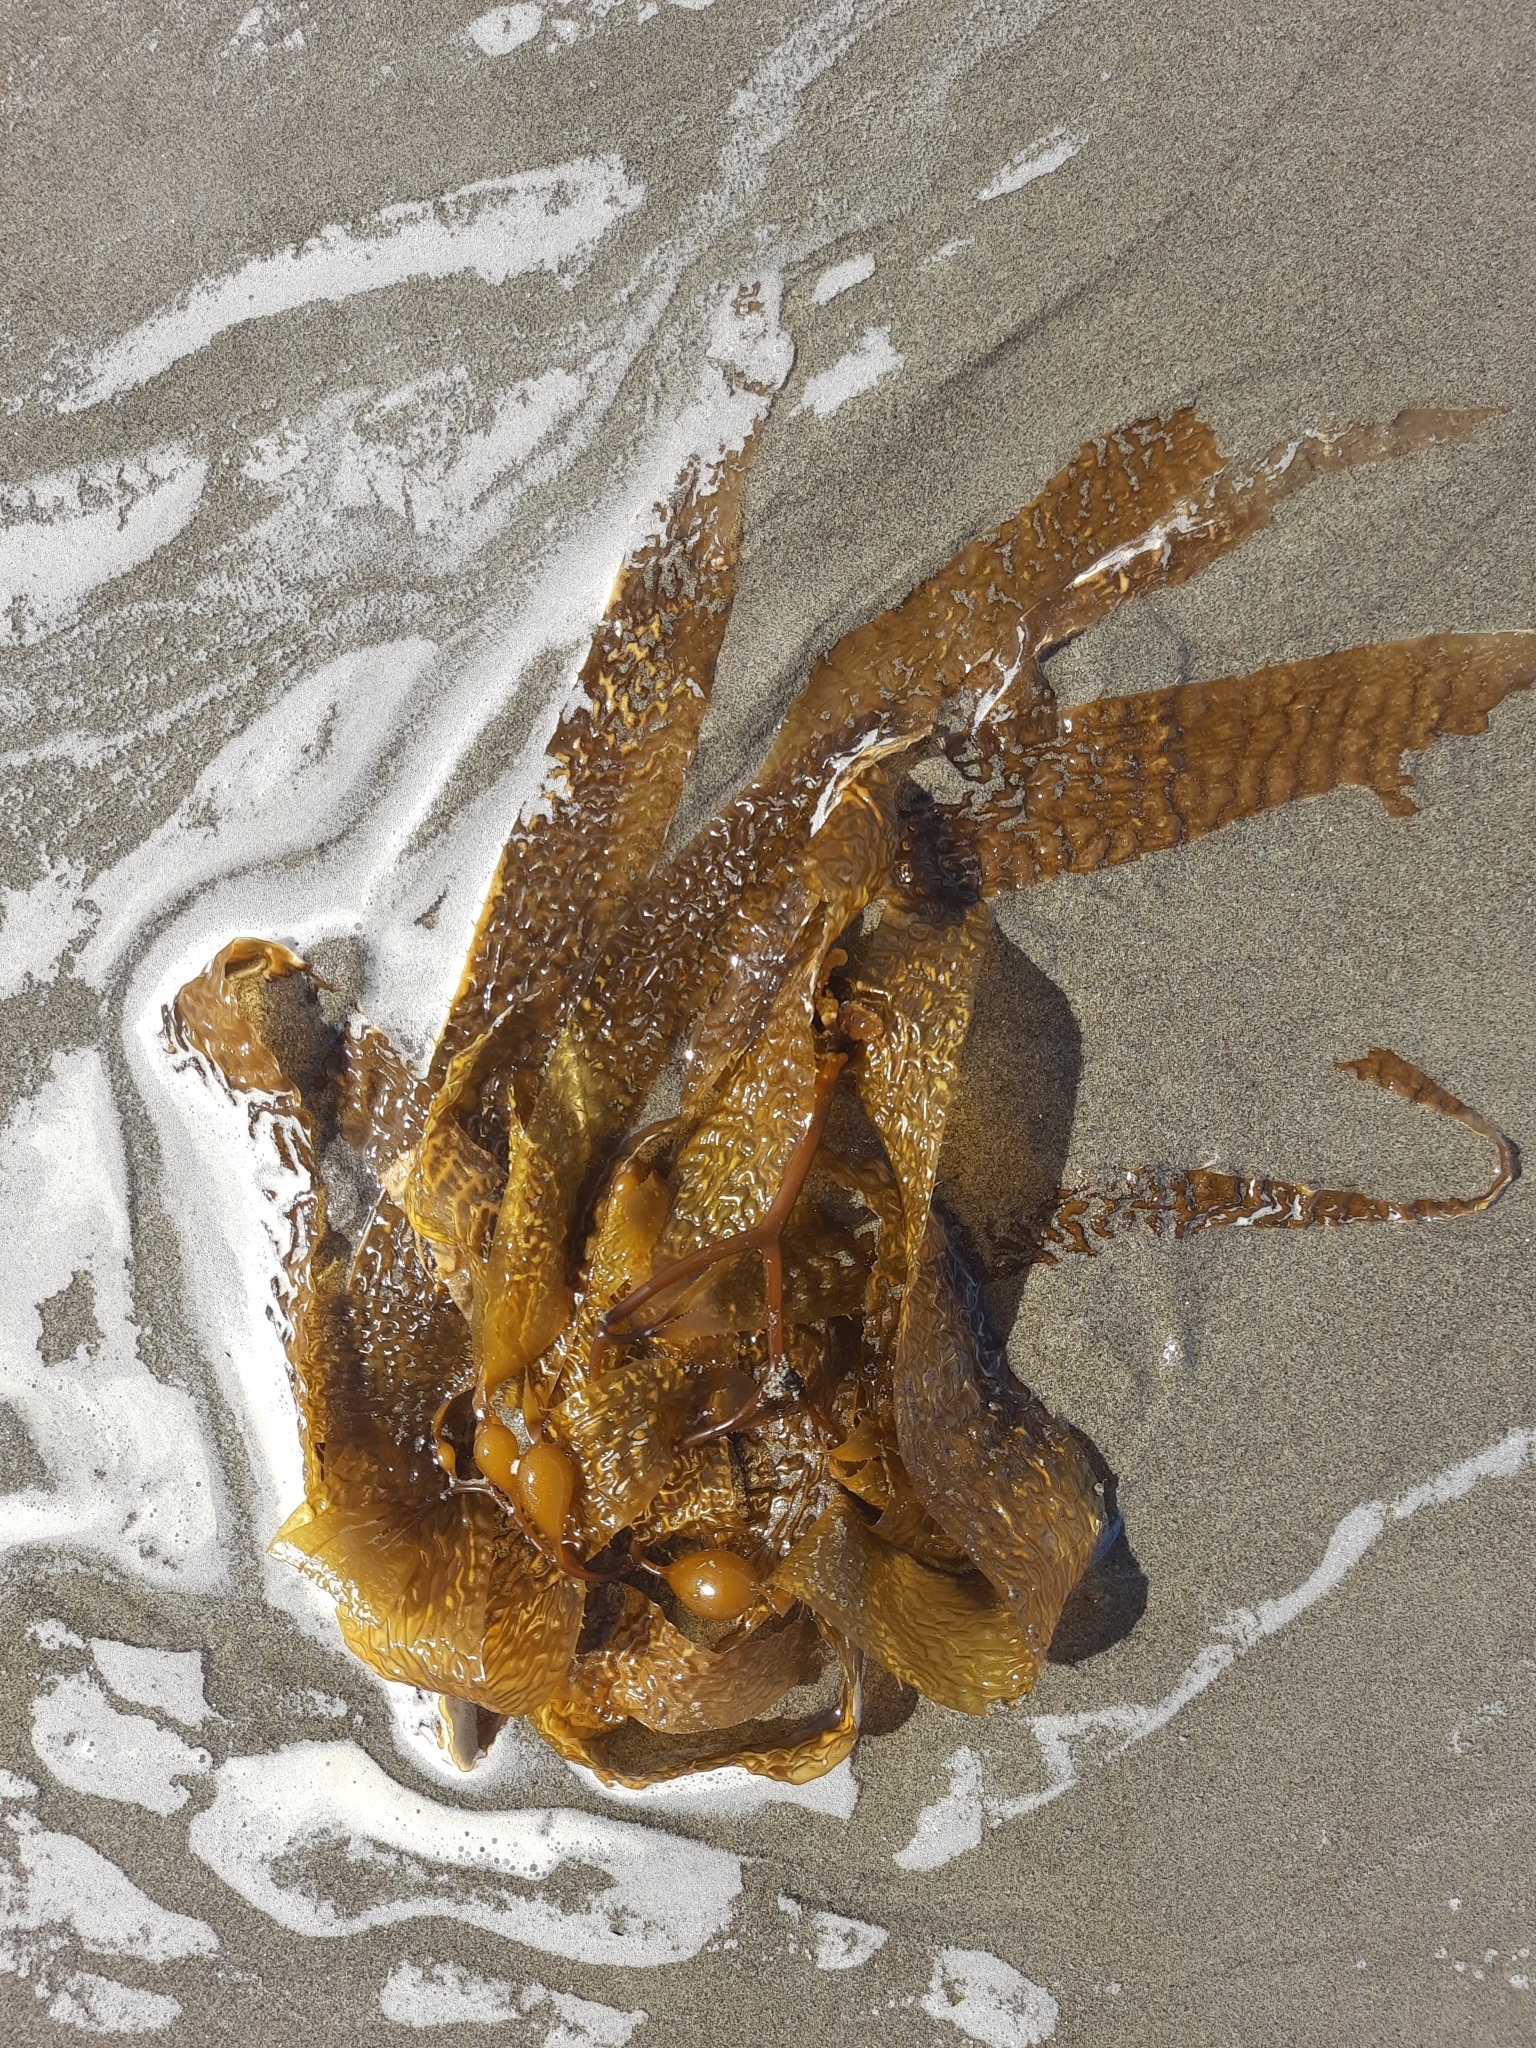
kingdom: Chromista
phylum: Ochrophyta
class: Phaeophyceae
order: Laminariales
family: Laminariaceae
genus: Macrocystis
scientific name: Macrocystis pyrifera
